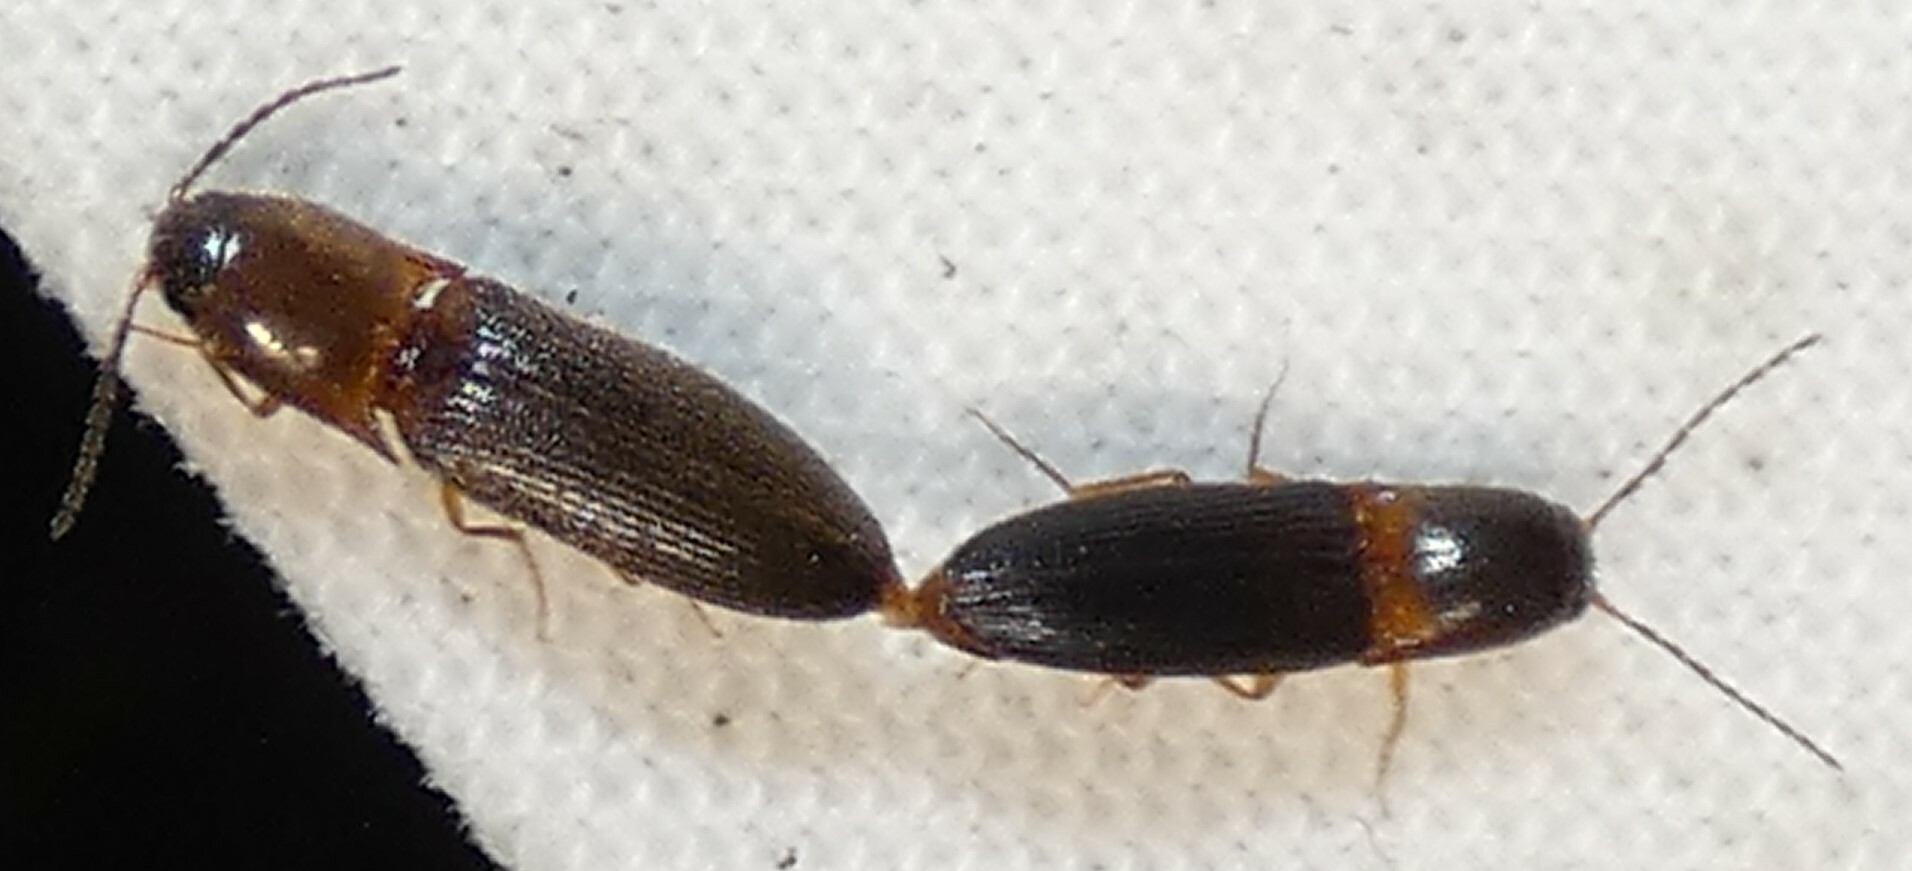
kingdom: Animalia
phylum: Arthropoda
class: Insecta
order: Coleoptera
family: Elateridae
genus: Megapenthes
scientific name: Megapenthes
